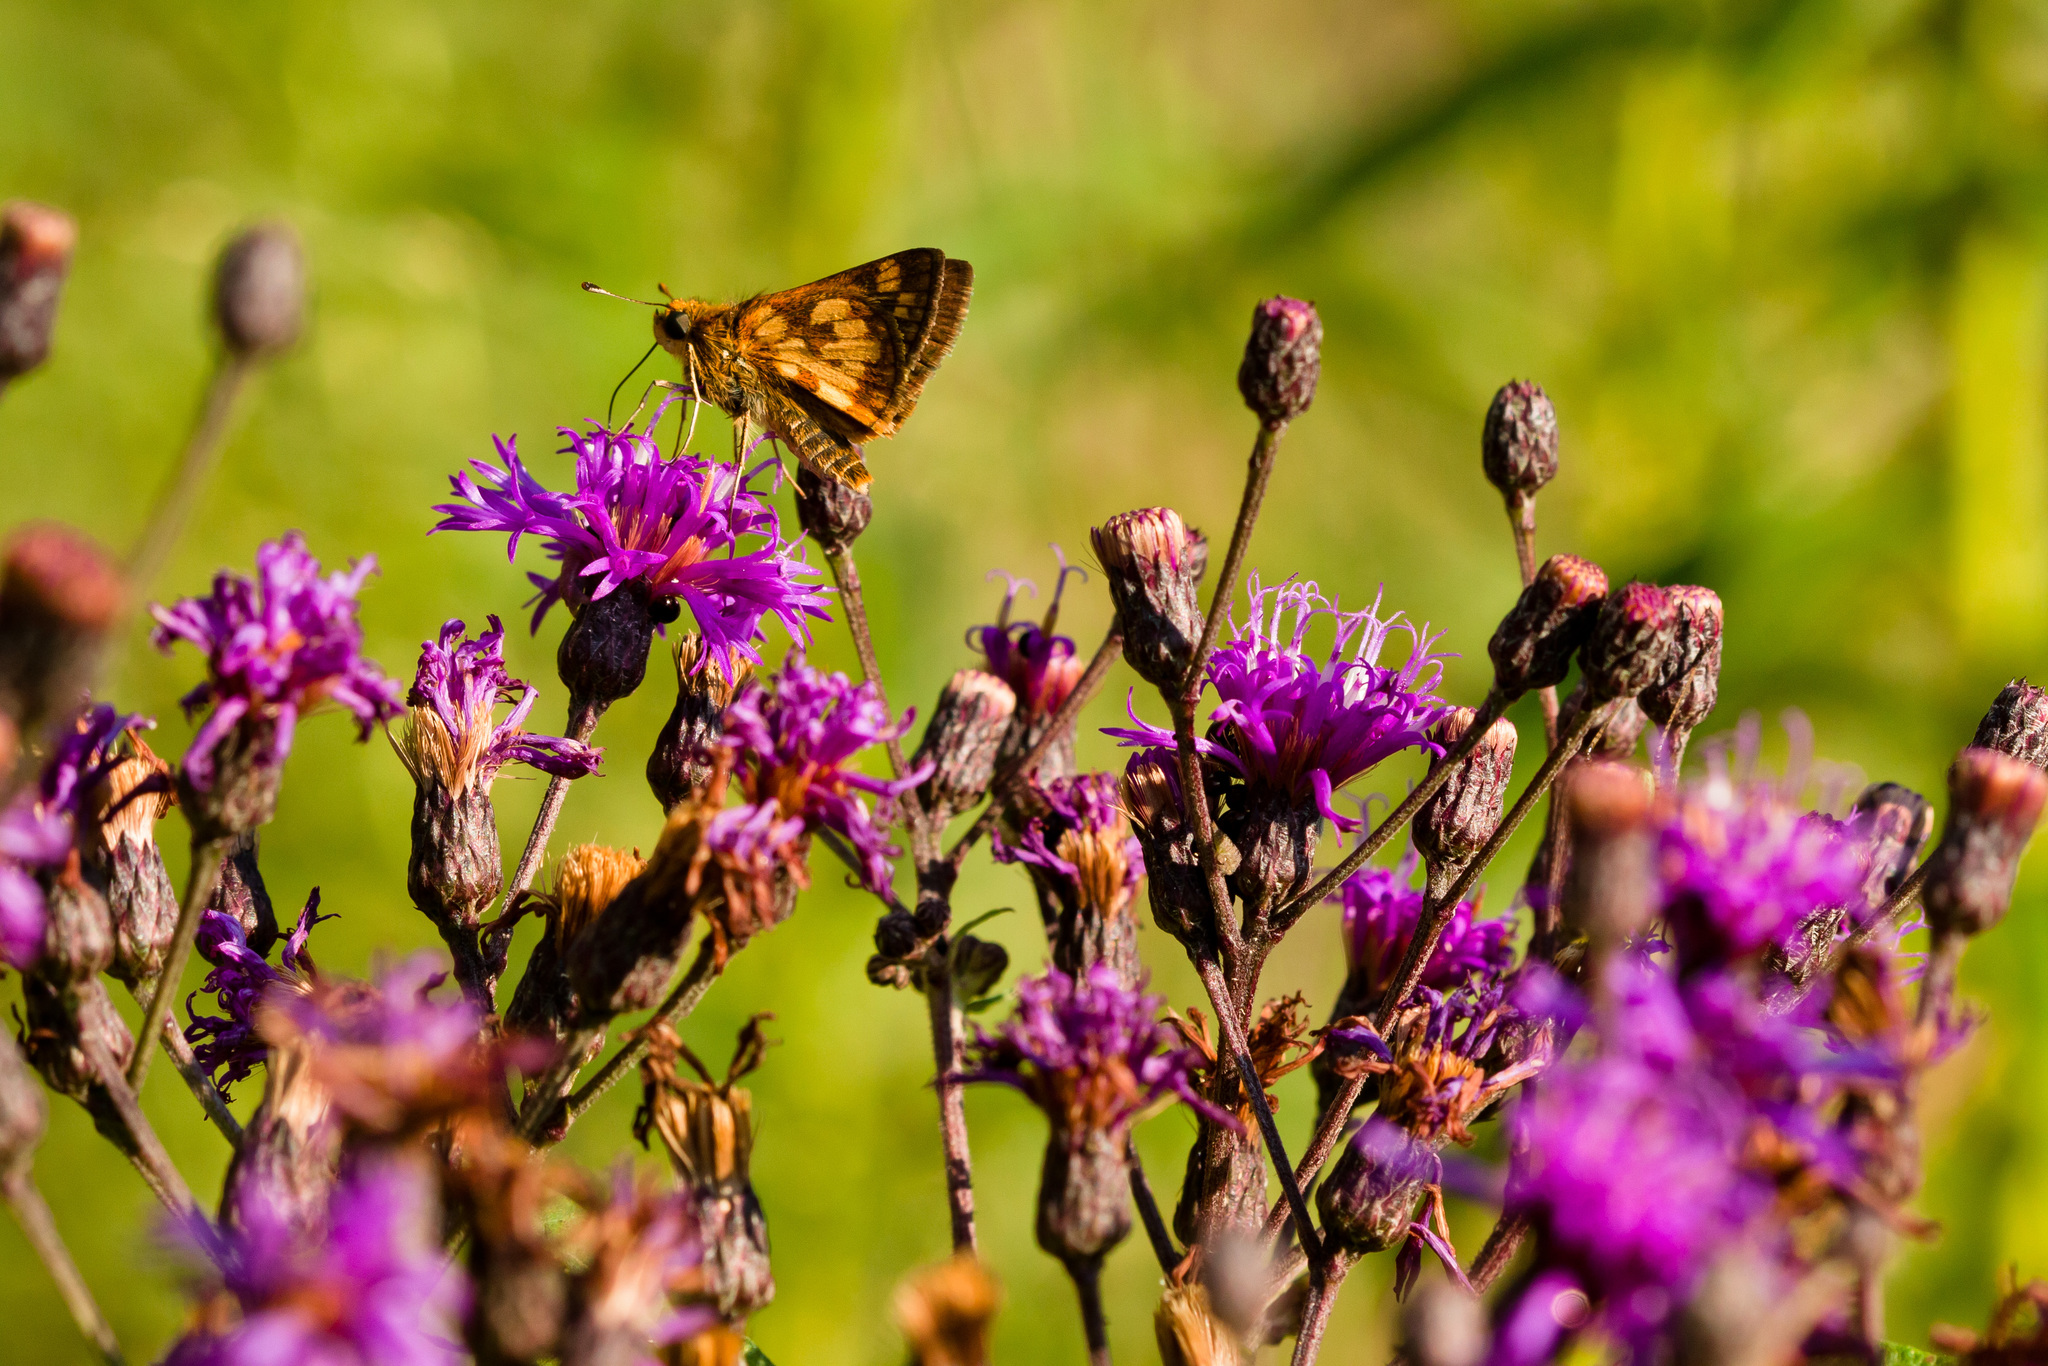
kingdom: Animalia
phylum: Arthropoda
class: Insecta
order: Lepidoptera
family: Hesperiidae
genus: Polites
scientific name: Polites coras
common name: Peck's skipper
